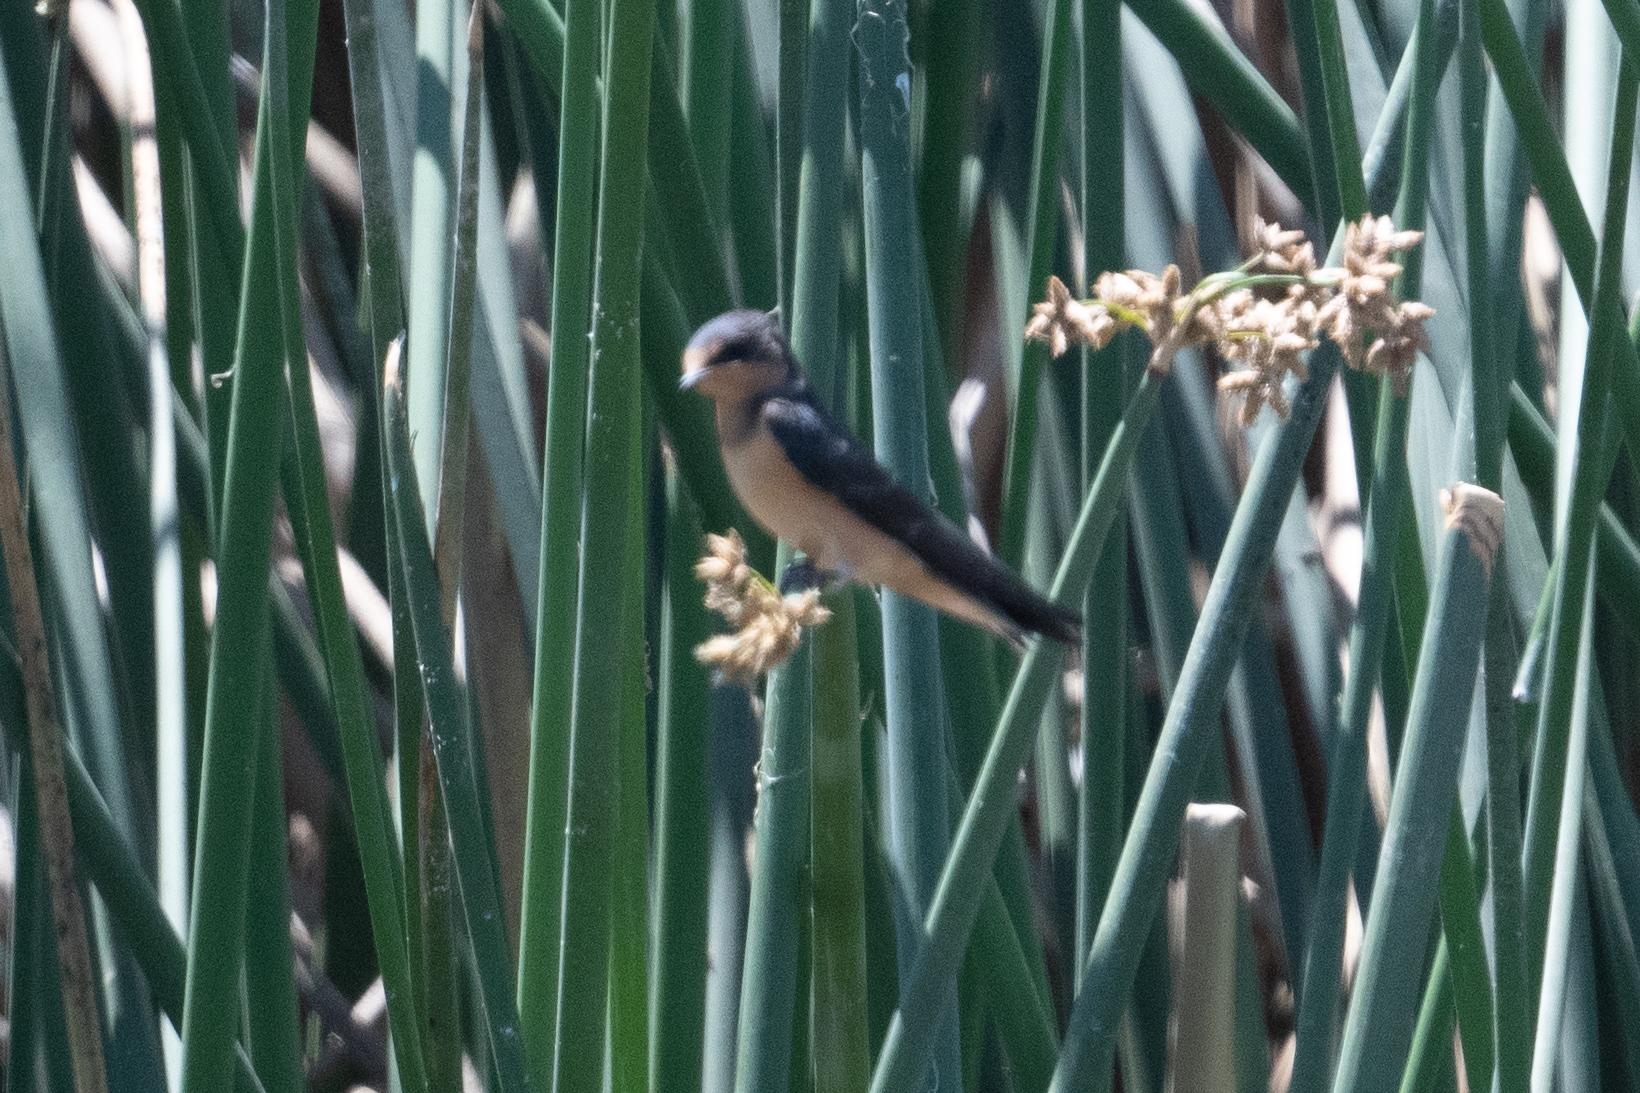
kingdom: Animalia
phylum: Chordata
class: Aves
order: Passeriformes
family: Hirundinidae
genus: Hirundo
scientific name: Hirundo rustica
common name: Barn swallow
